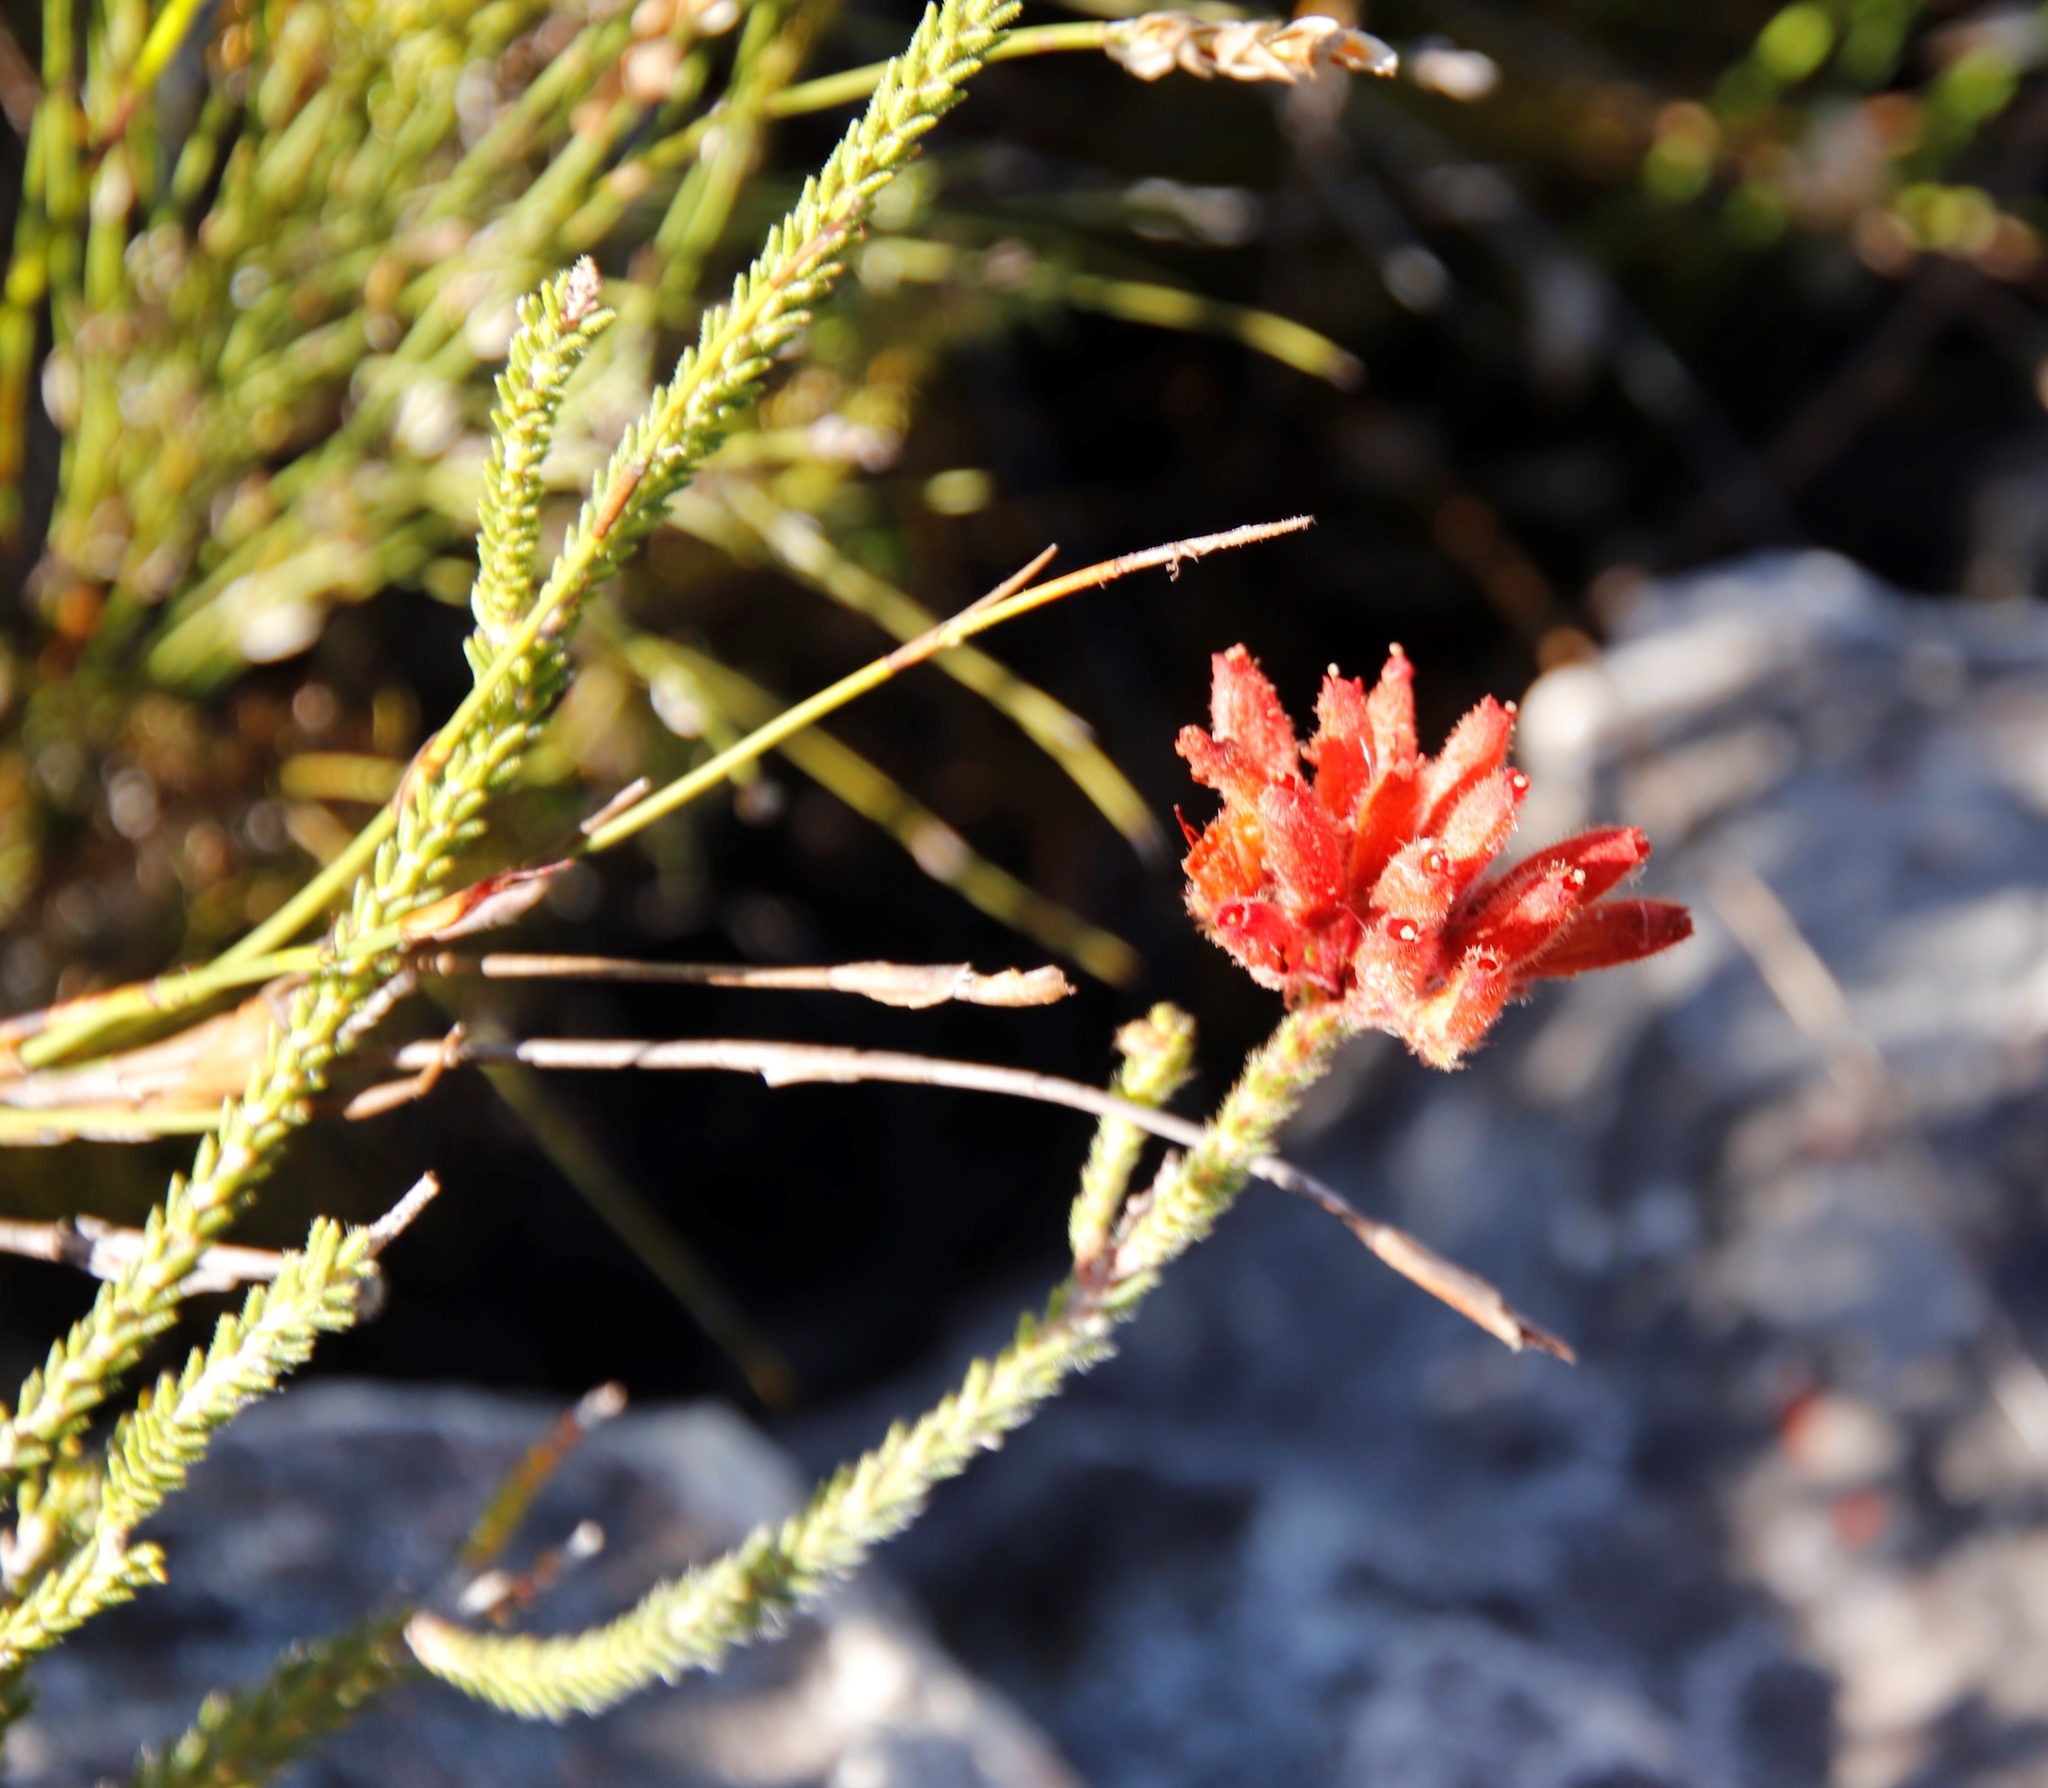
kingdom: Plantae
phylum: Tracheophyta
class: Magnoliopsida
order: Ericales
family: Ericaceae
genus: Erica
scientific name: Erica cerinthoides
